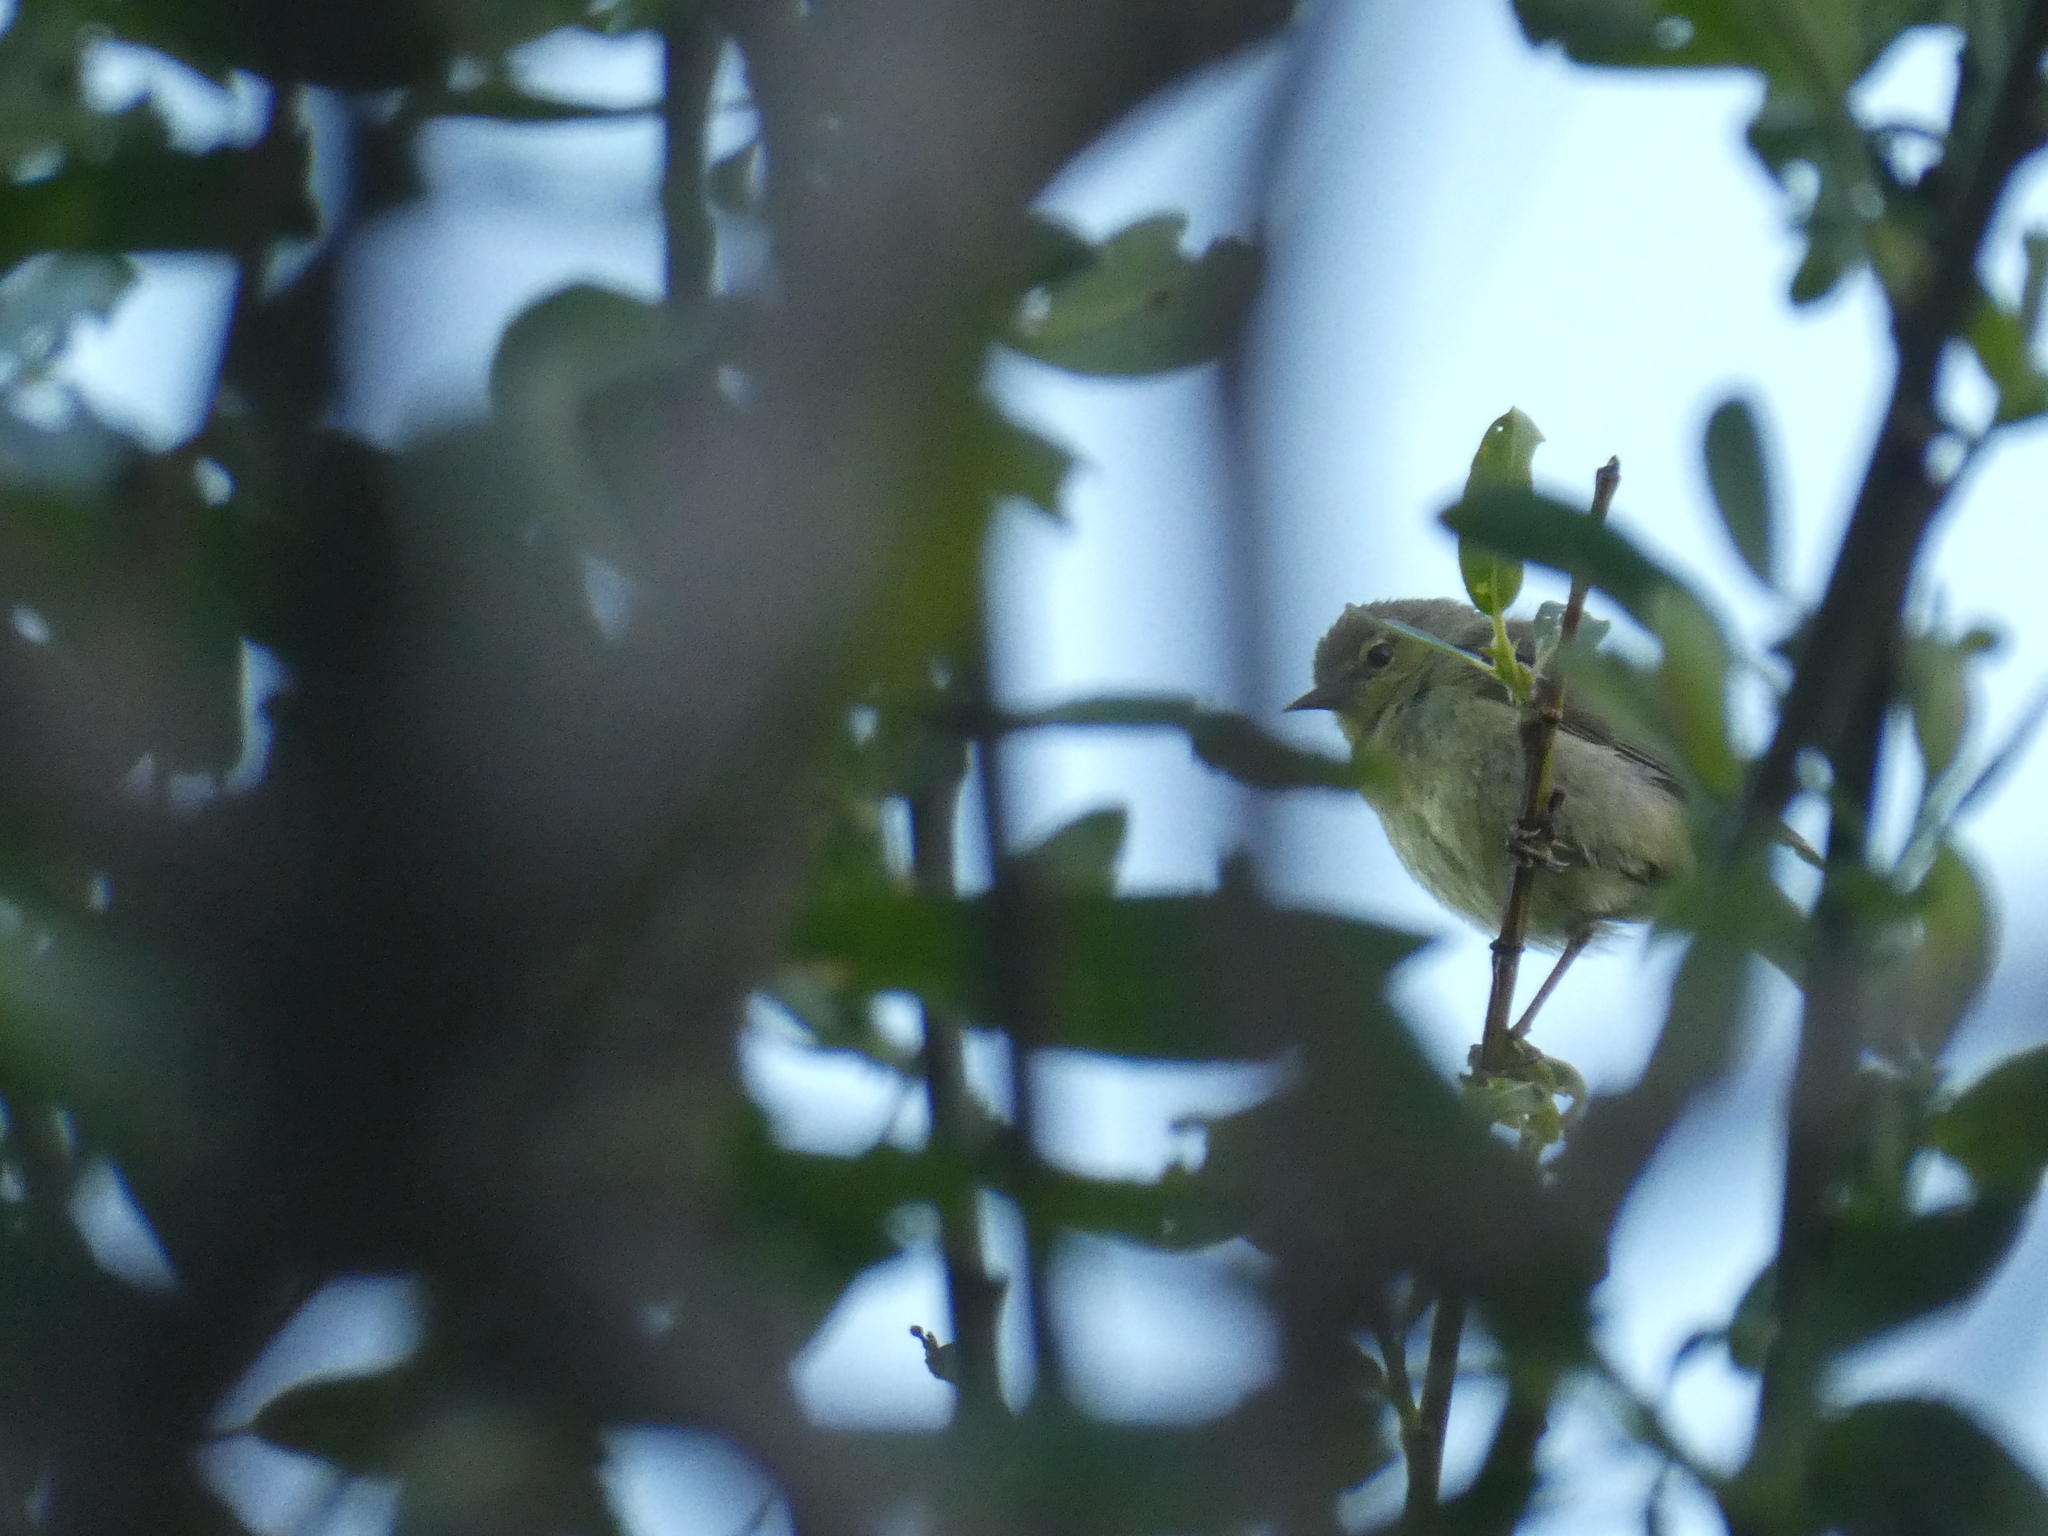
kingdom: Animalia
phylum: Chordata
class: Aves
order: Passeriformes
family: Parulidae
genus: Leiothlypis
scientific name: Leiothlypis celata
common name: Orange-crowned warbler
